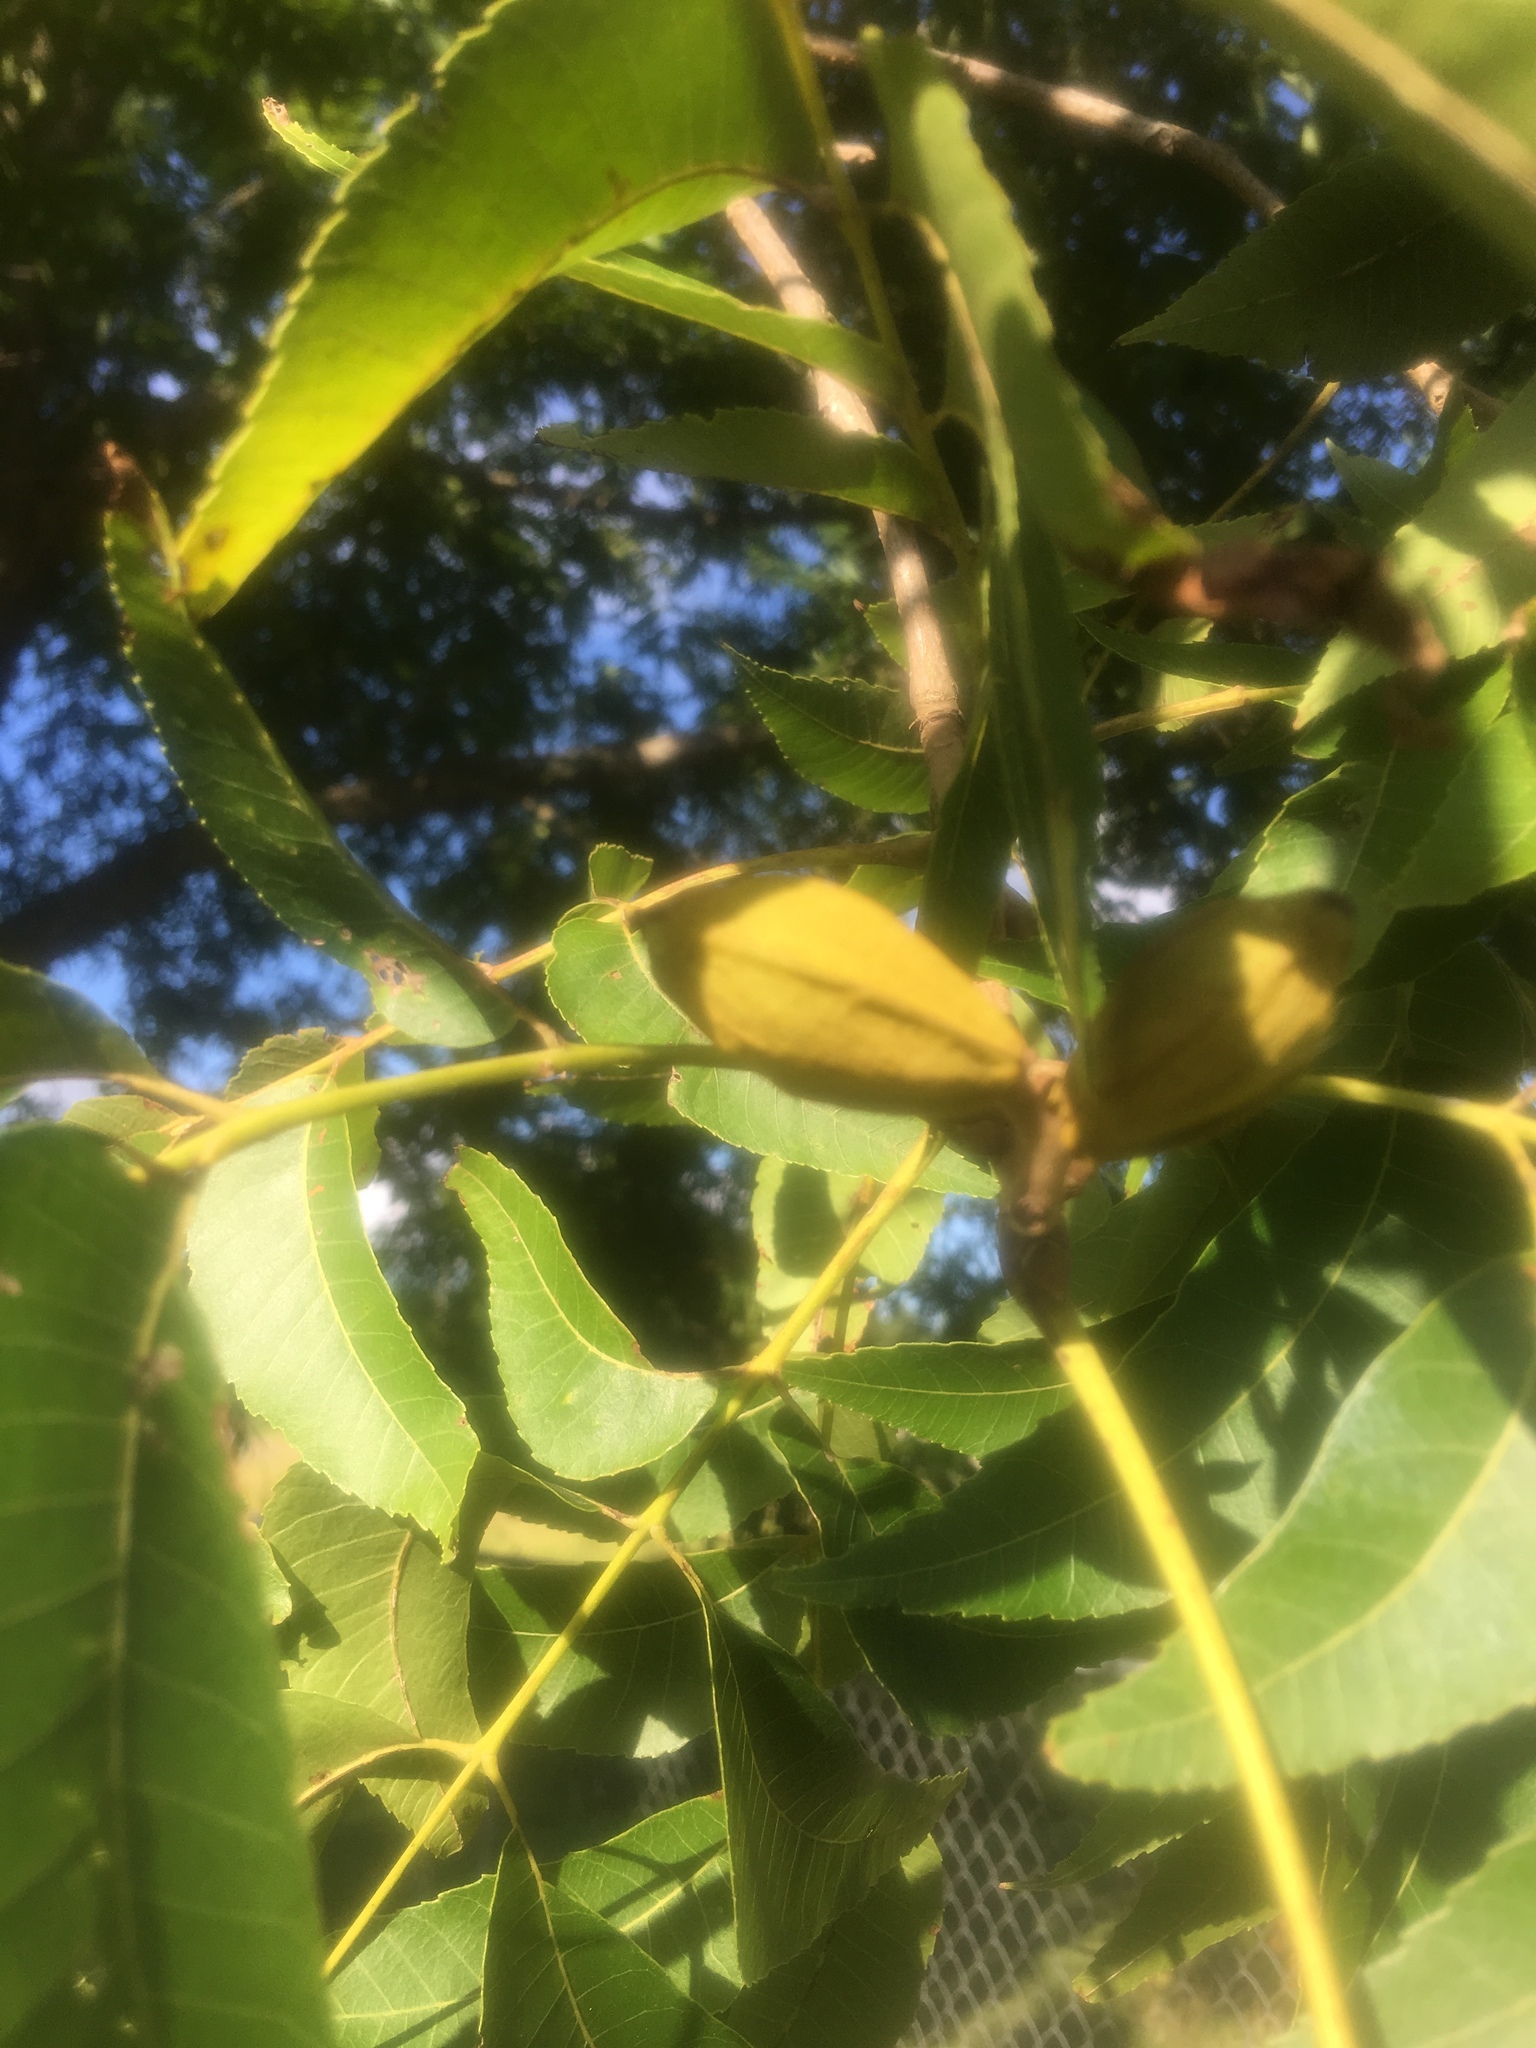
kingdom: Plantae
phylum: Tracheophyta
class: Magnoliopsida
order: Fagales
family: Juglandaceae
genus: Carya
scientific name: Carya illinoinensis
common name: Pecan
